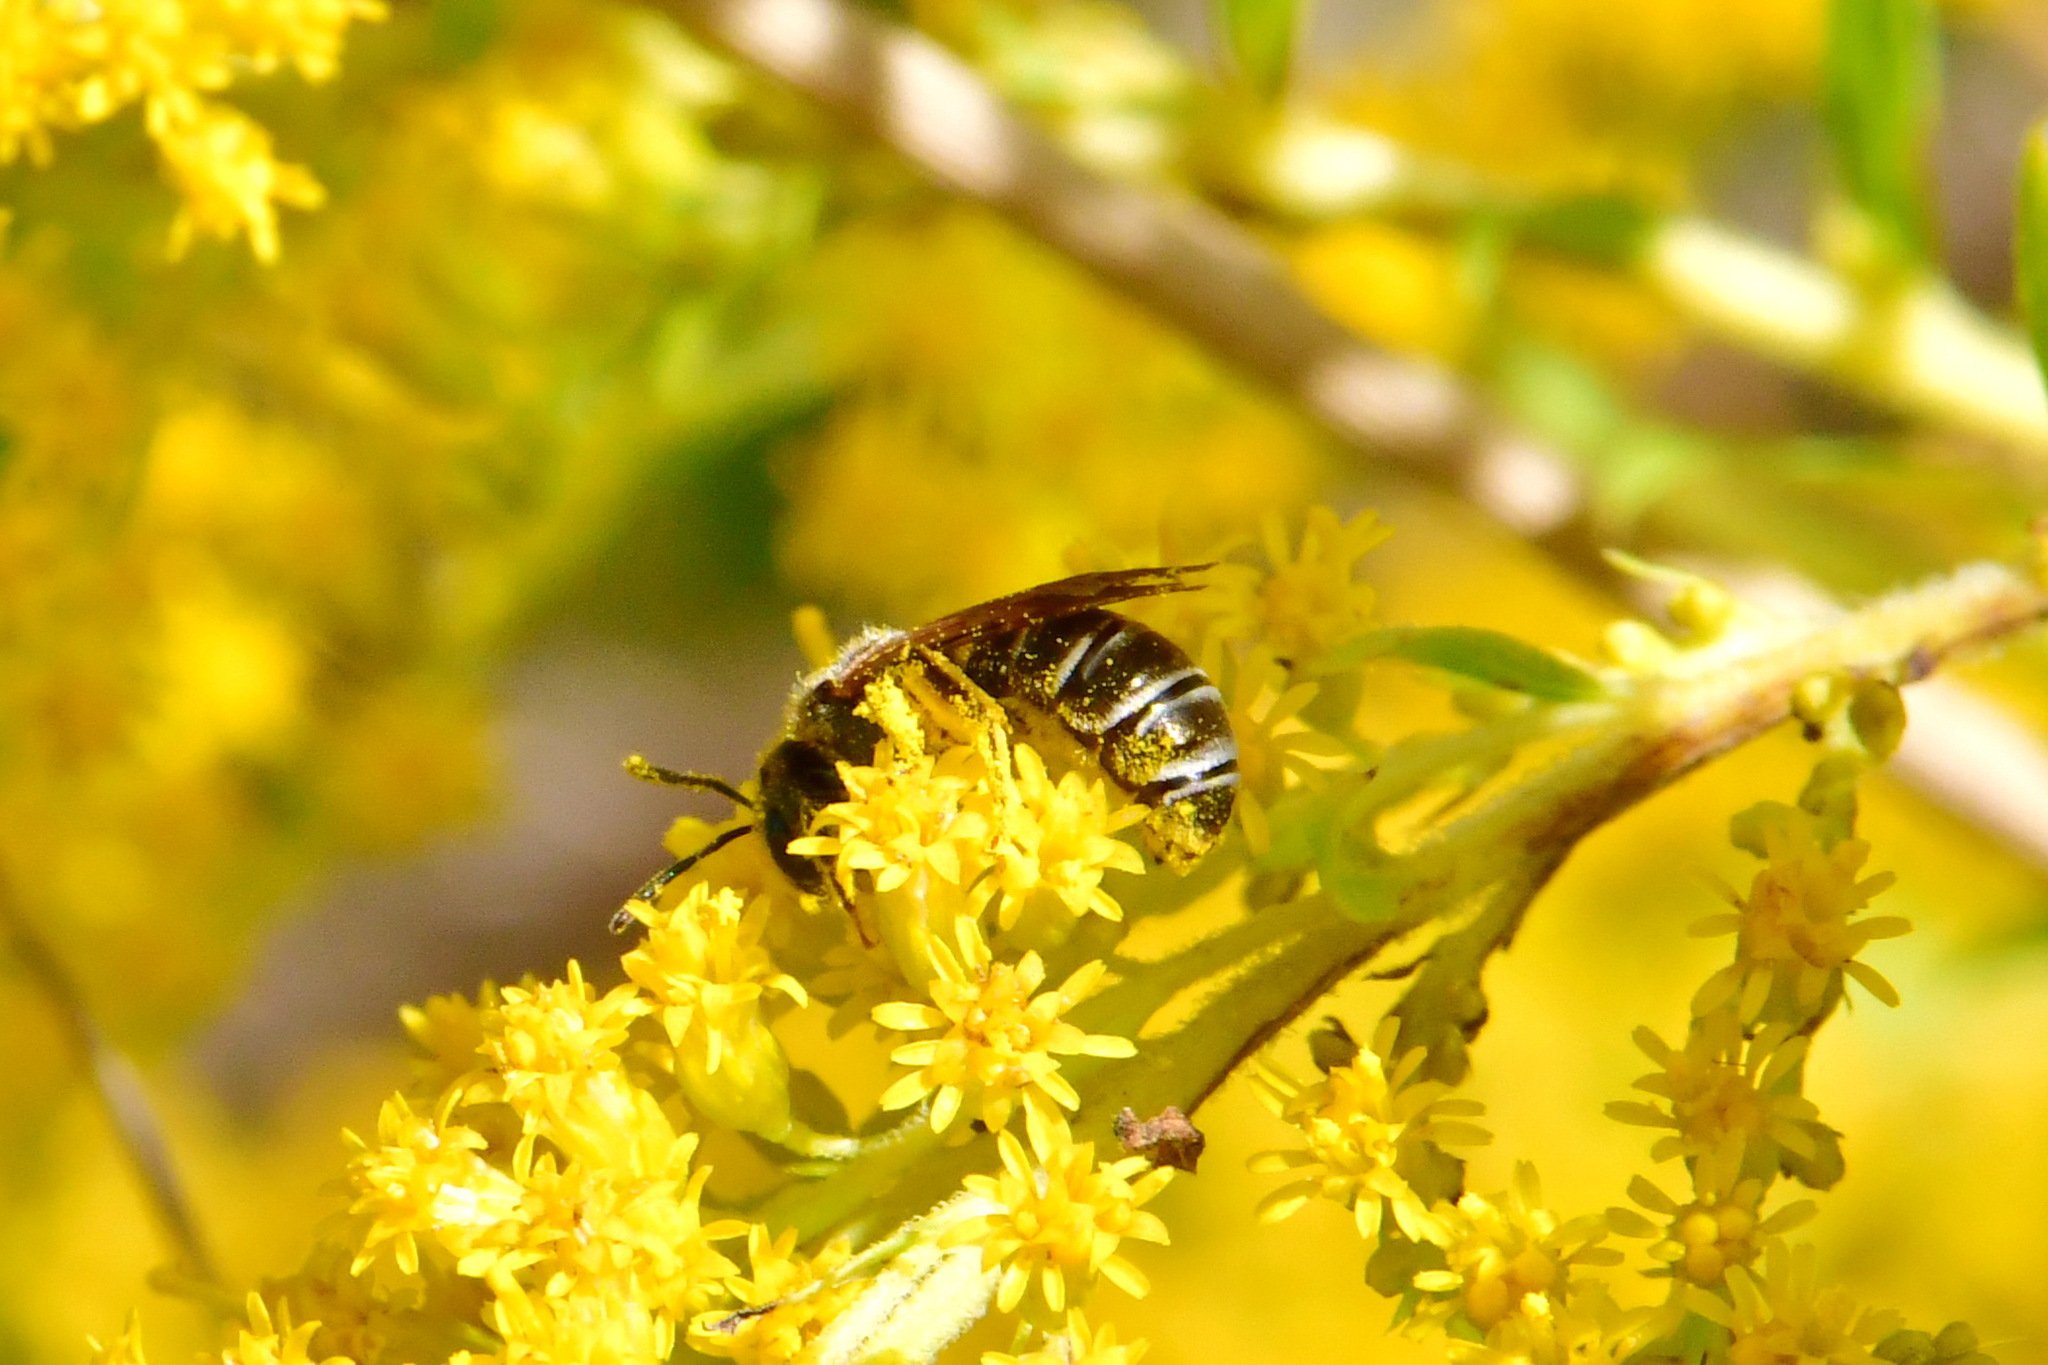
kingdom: Animalia
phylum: Arthropoda
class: Insecta
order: Hymenoptera
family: Halictidae
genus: Halictus
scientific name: Halictus tumulorum
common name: Bronze furrow bee
